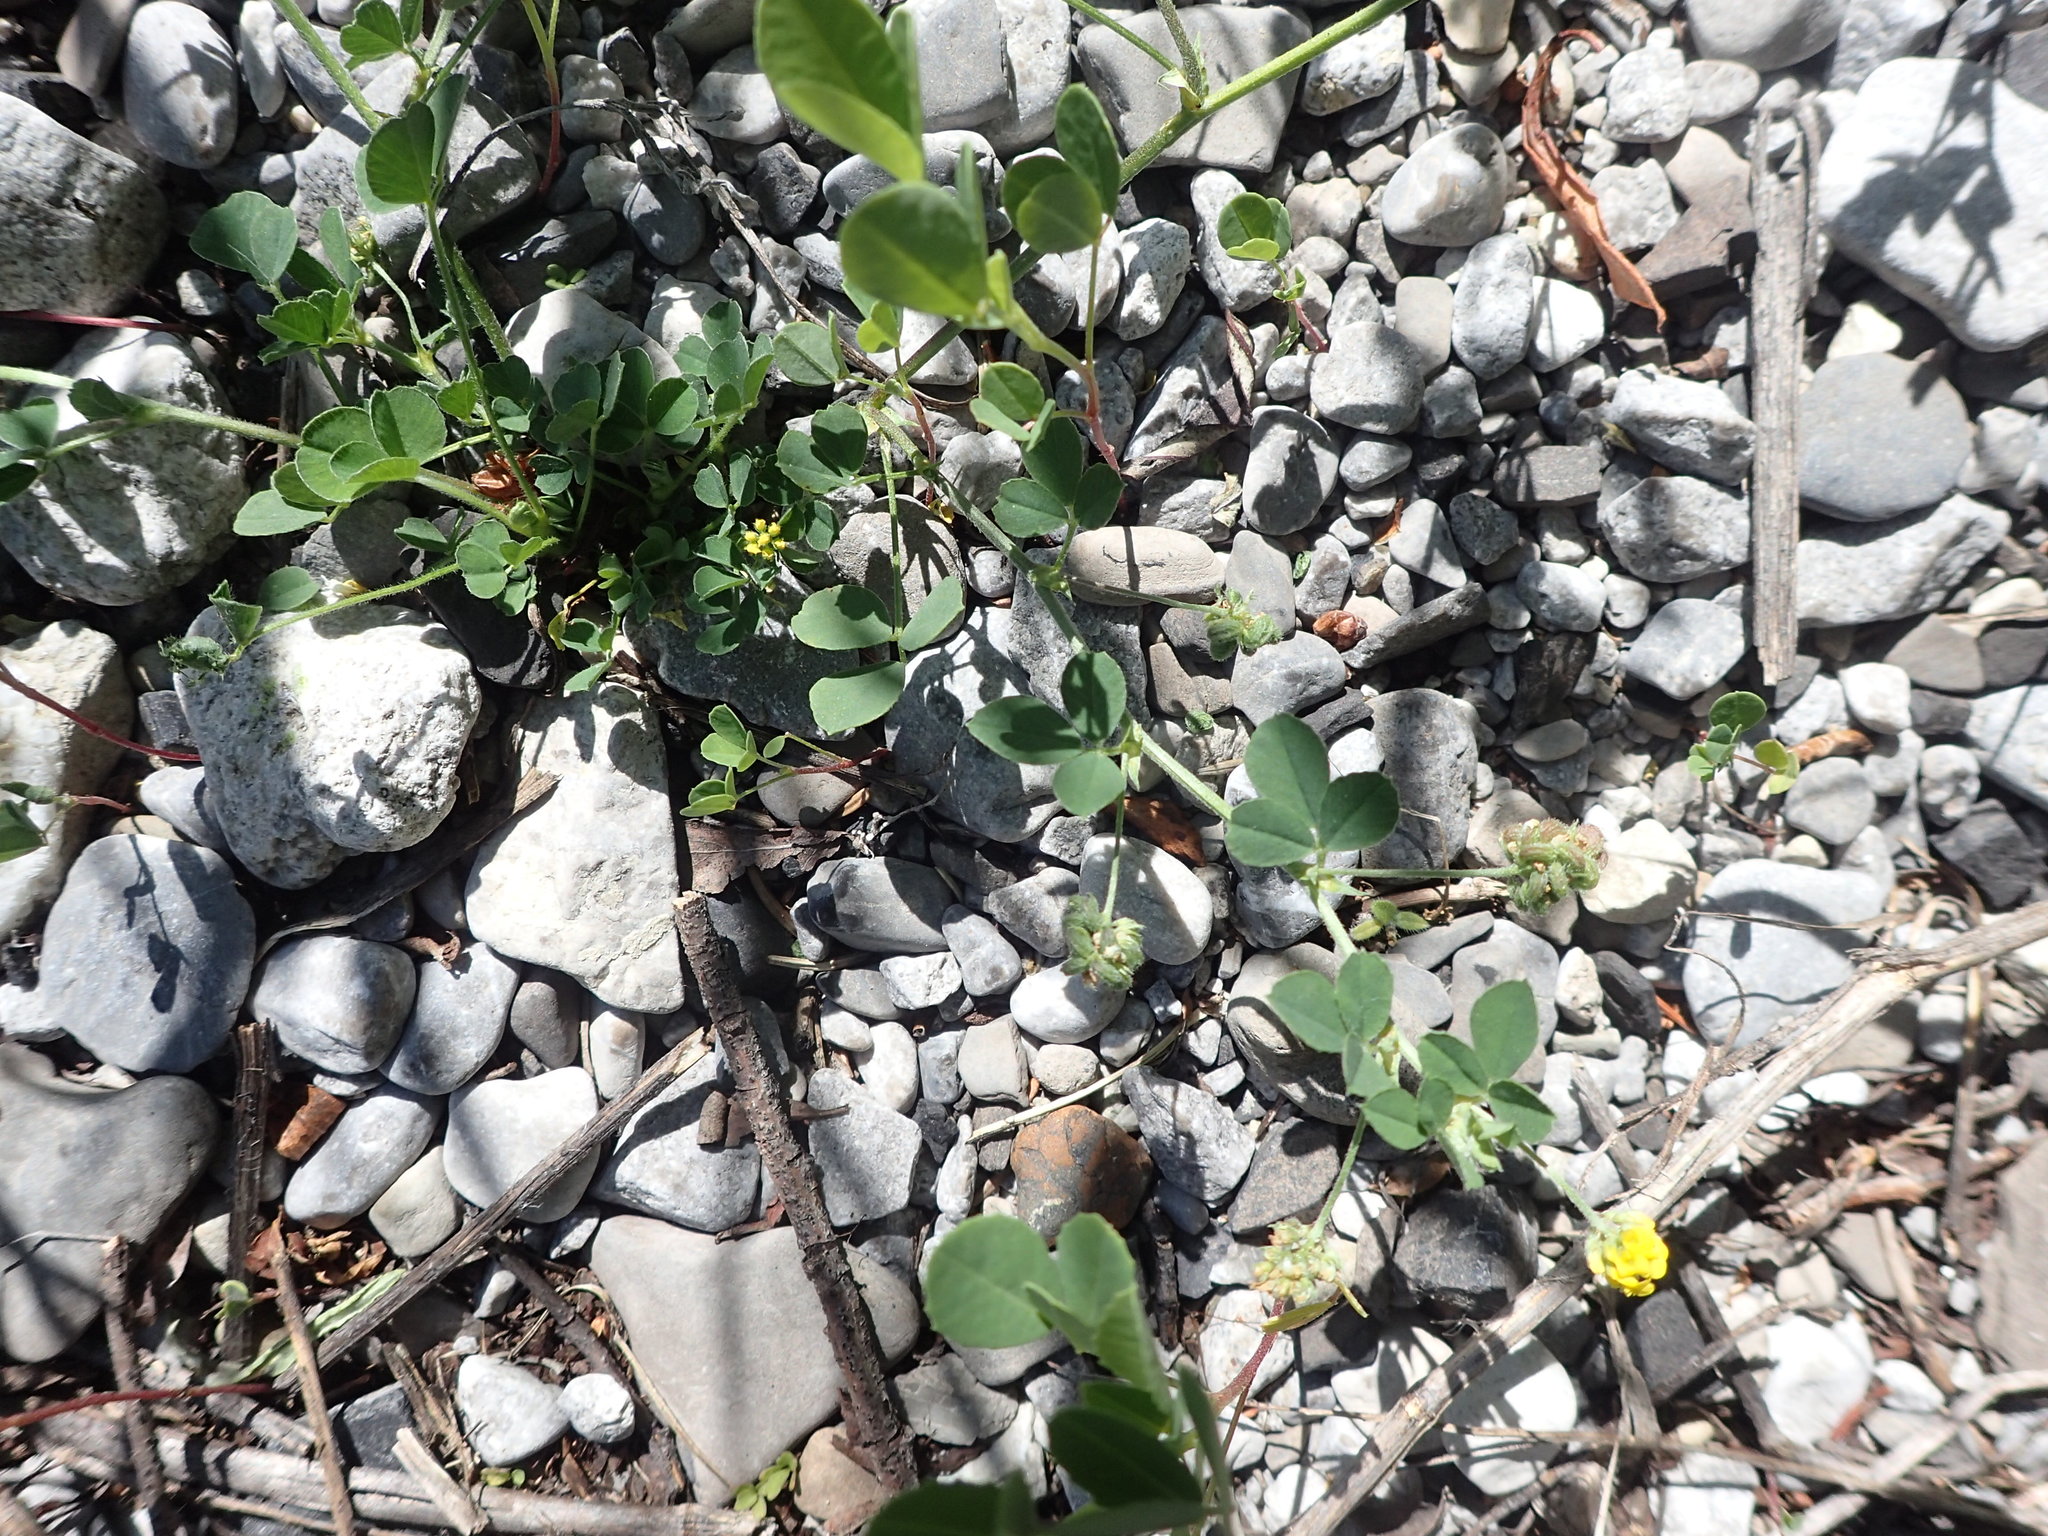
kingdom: Plantae
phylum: Tracheophyta
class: Magnoliopsida
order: Fabales
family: Fabaceae
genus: Medicago
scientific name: Medicago lupulina
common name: Black medick
